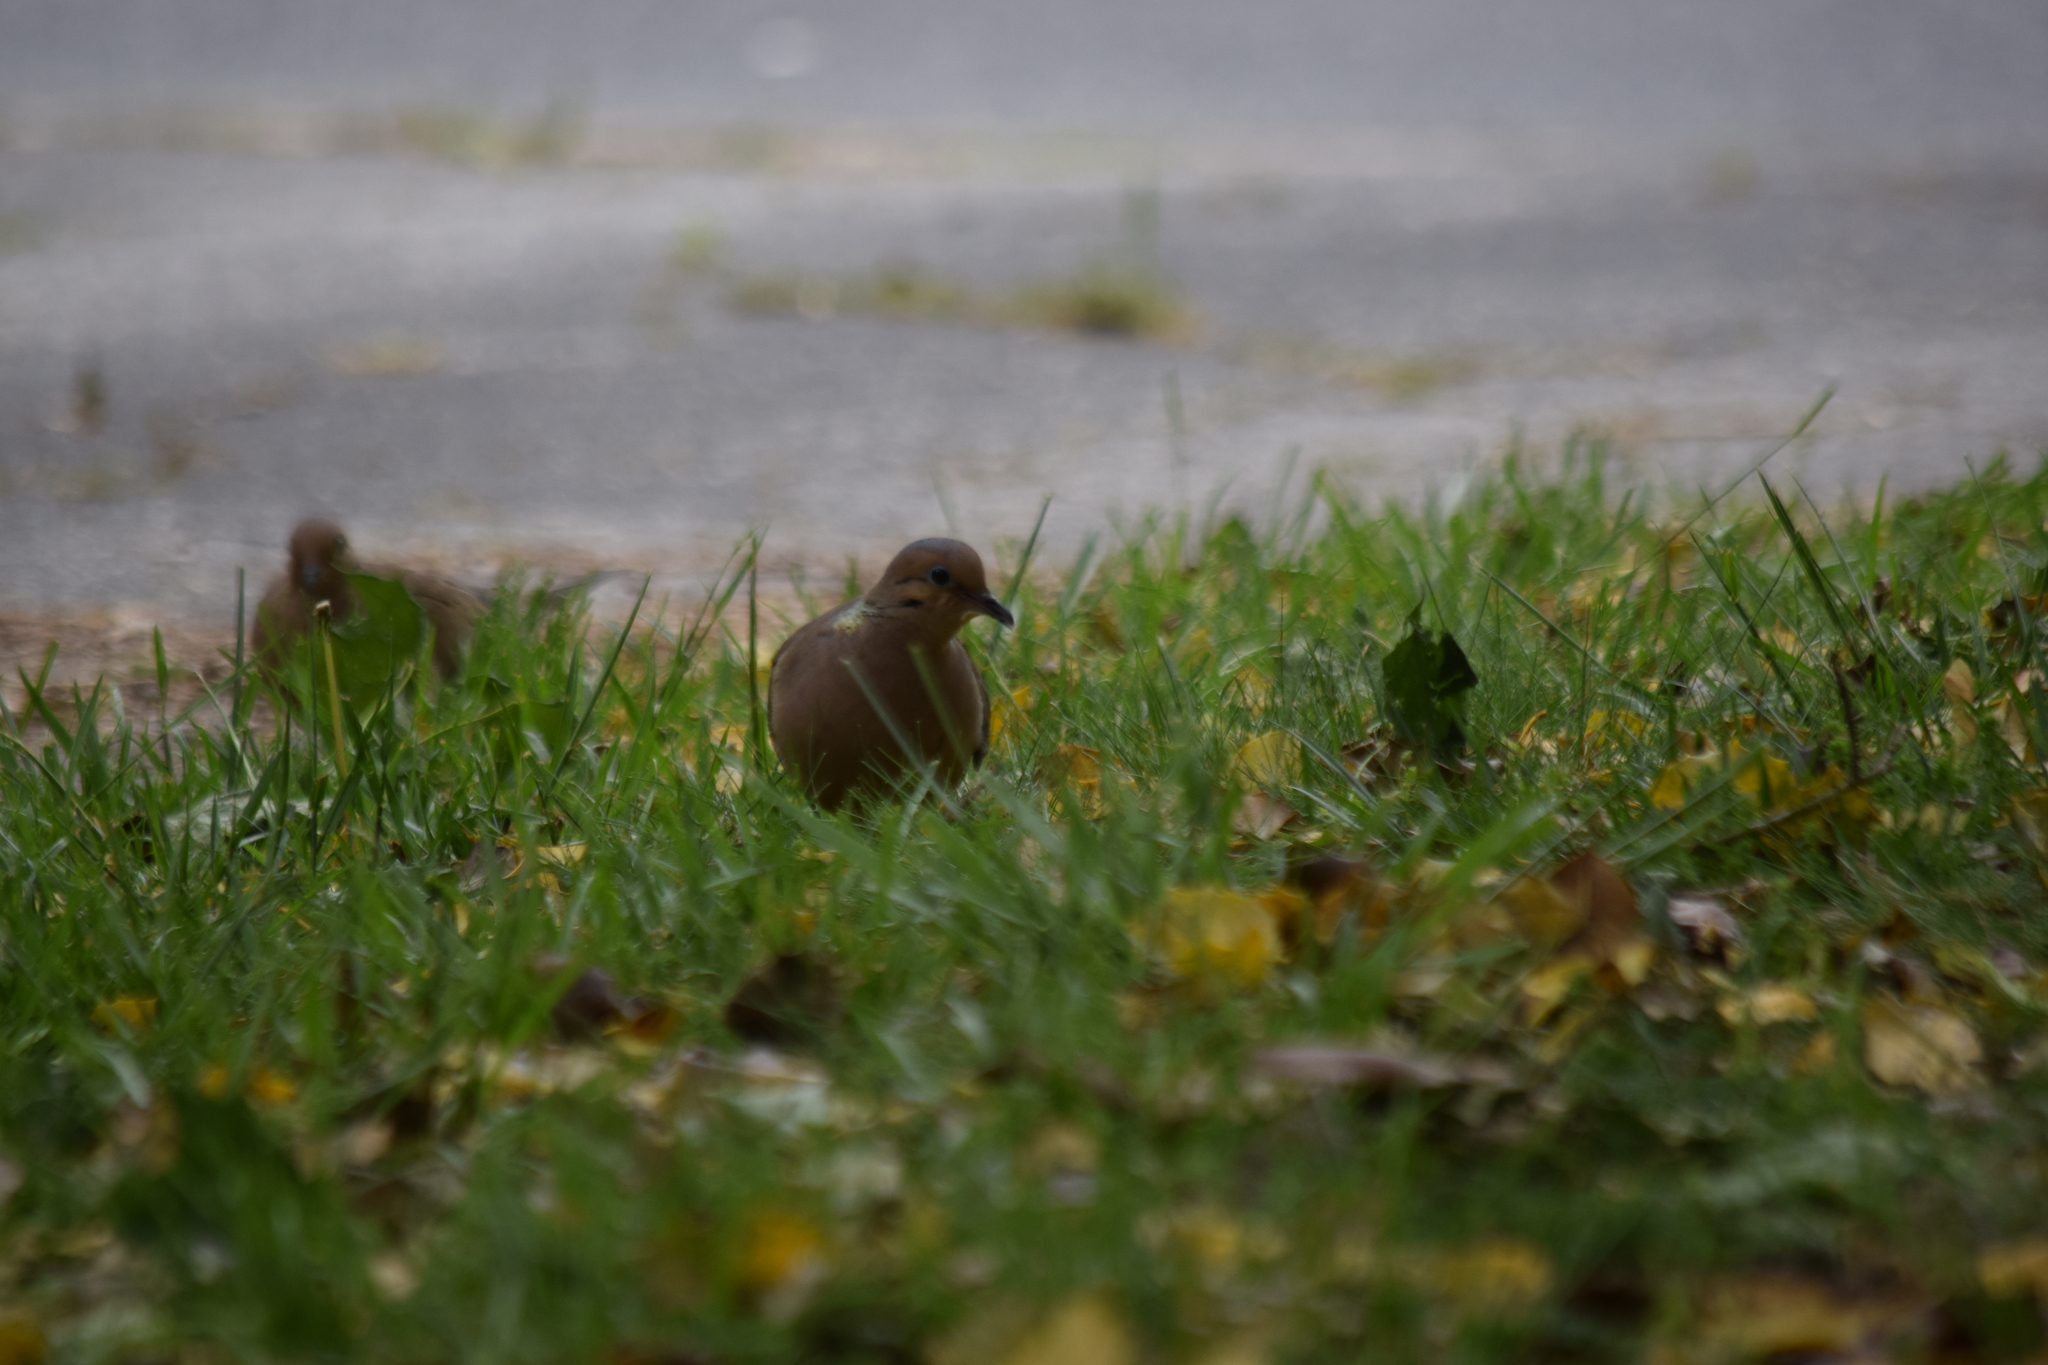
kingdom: Animalia
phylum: Chordata
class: Aves
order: Columbiformes
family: Columbidae
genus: Zenaida
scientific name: Zenaida macroura
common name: Mourning dove
